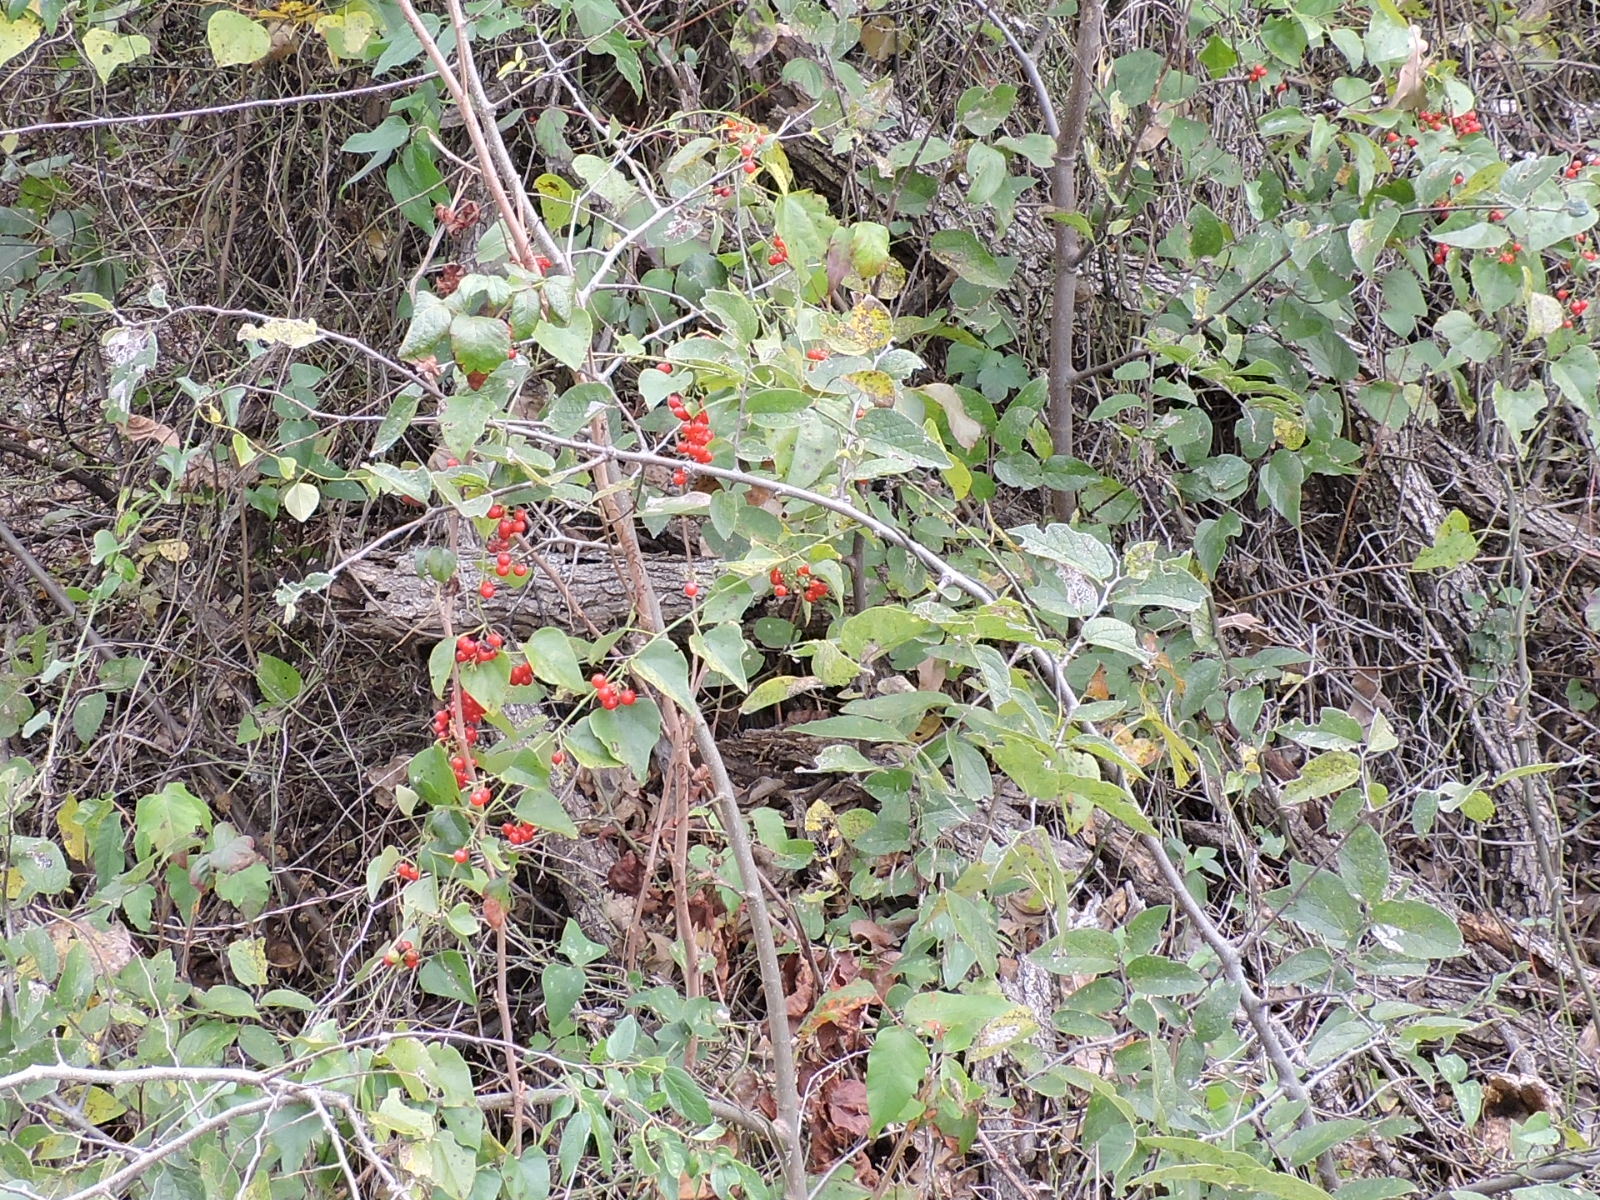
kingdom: Plantae
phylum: Tracheophyta
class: Magnoliopsida
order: Ranunculales
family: Menispermaceae
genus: Cocculus
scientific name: Cocculus carolinus
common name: Carolina moonseed
